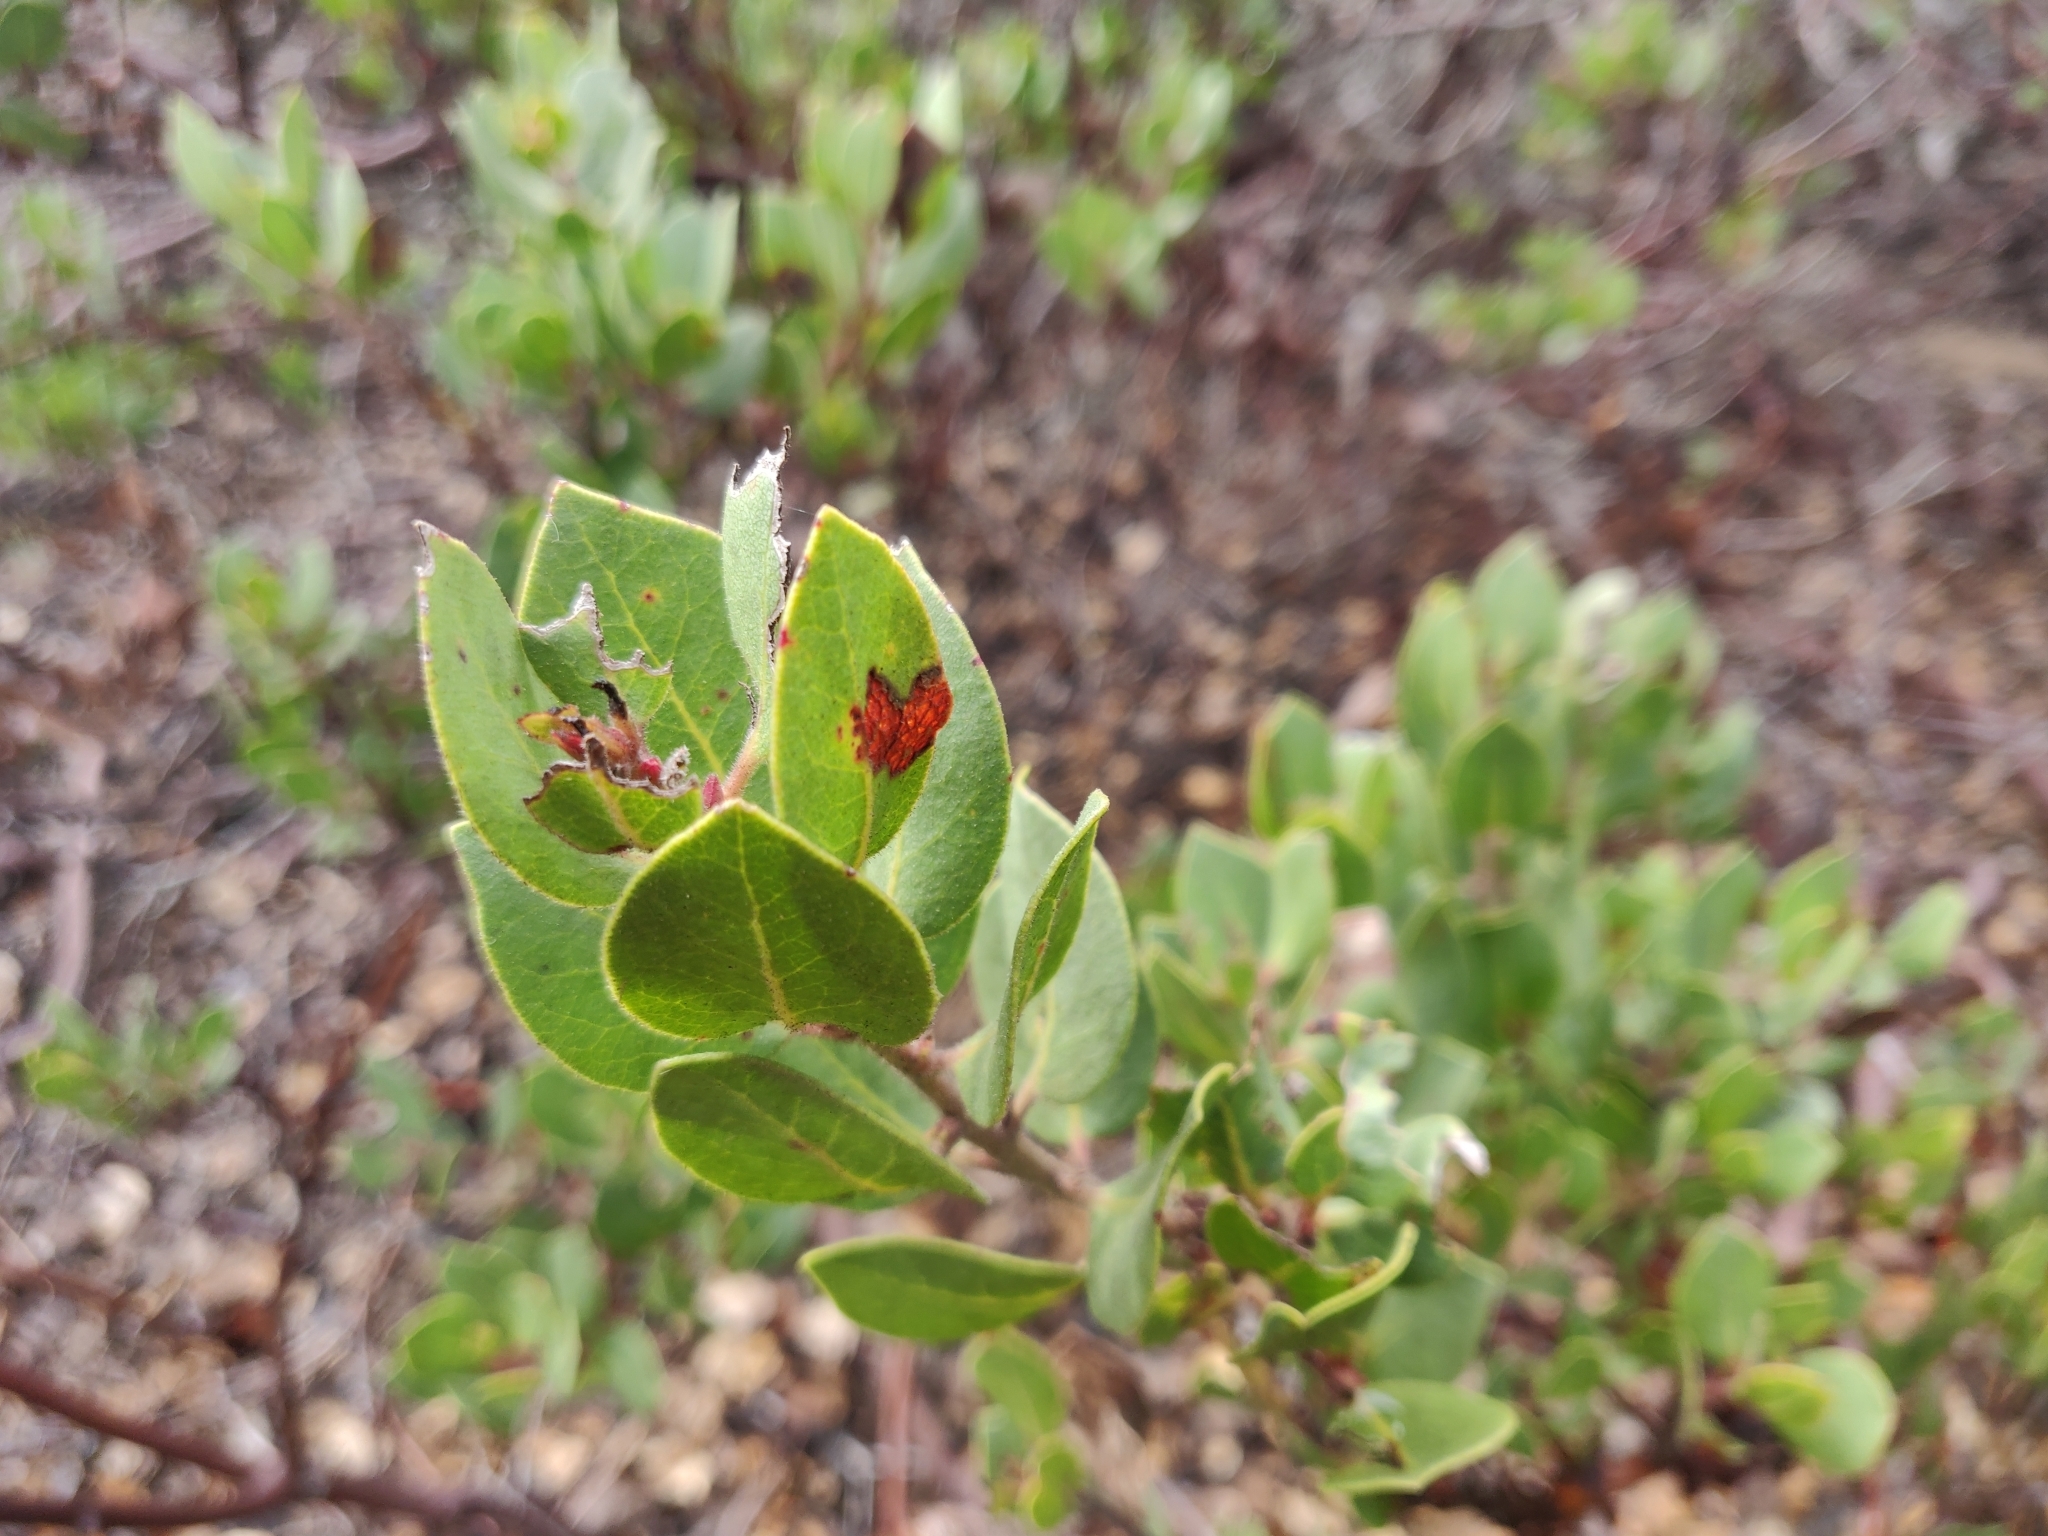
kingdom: Plantae
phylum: Tracheophyta
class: Magnoliopsida
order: Ericales
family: Ericaceae
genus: Arctostaphylos
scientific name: Arctostaphylos montereyensis
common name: Monterey manzanita
